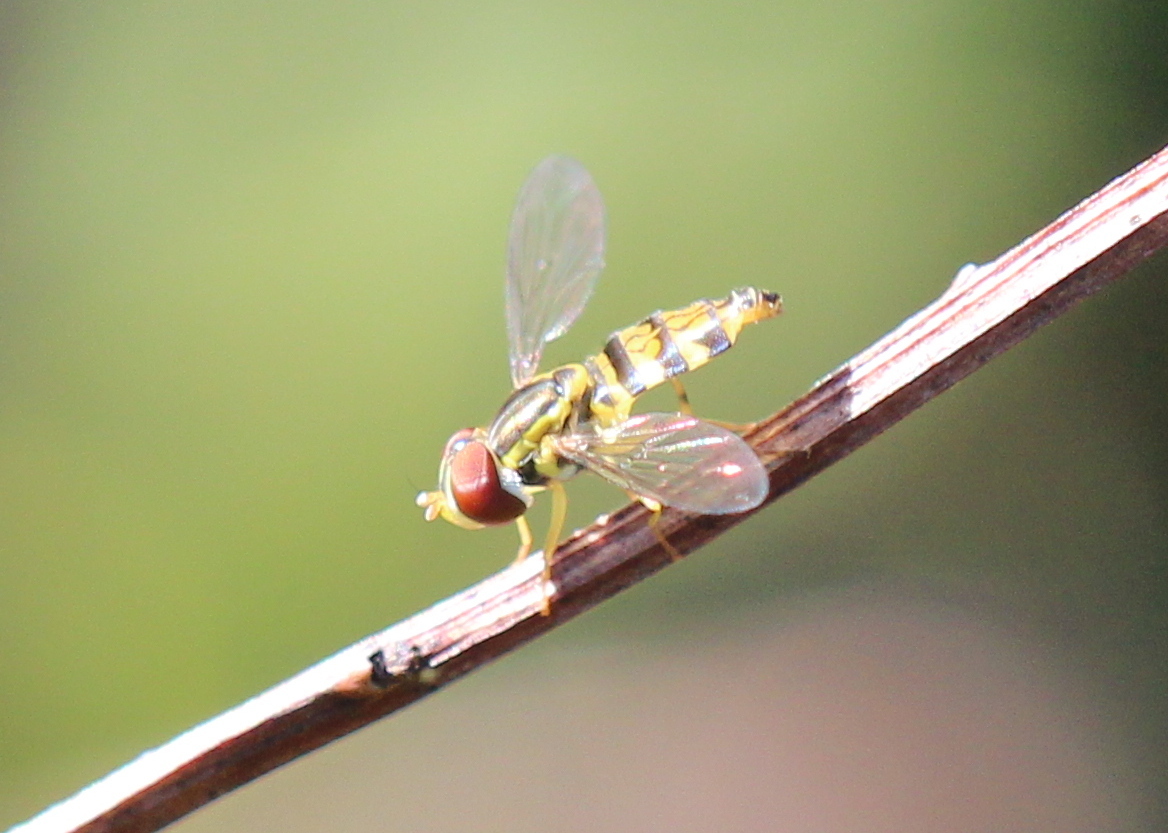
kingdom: Animalia
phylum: Arthropoda
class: Insecta
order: Diptera
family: Syrphidae
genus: Toxomerus
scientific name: Toxomerus geminatus
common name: Eastern calligrapher
